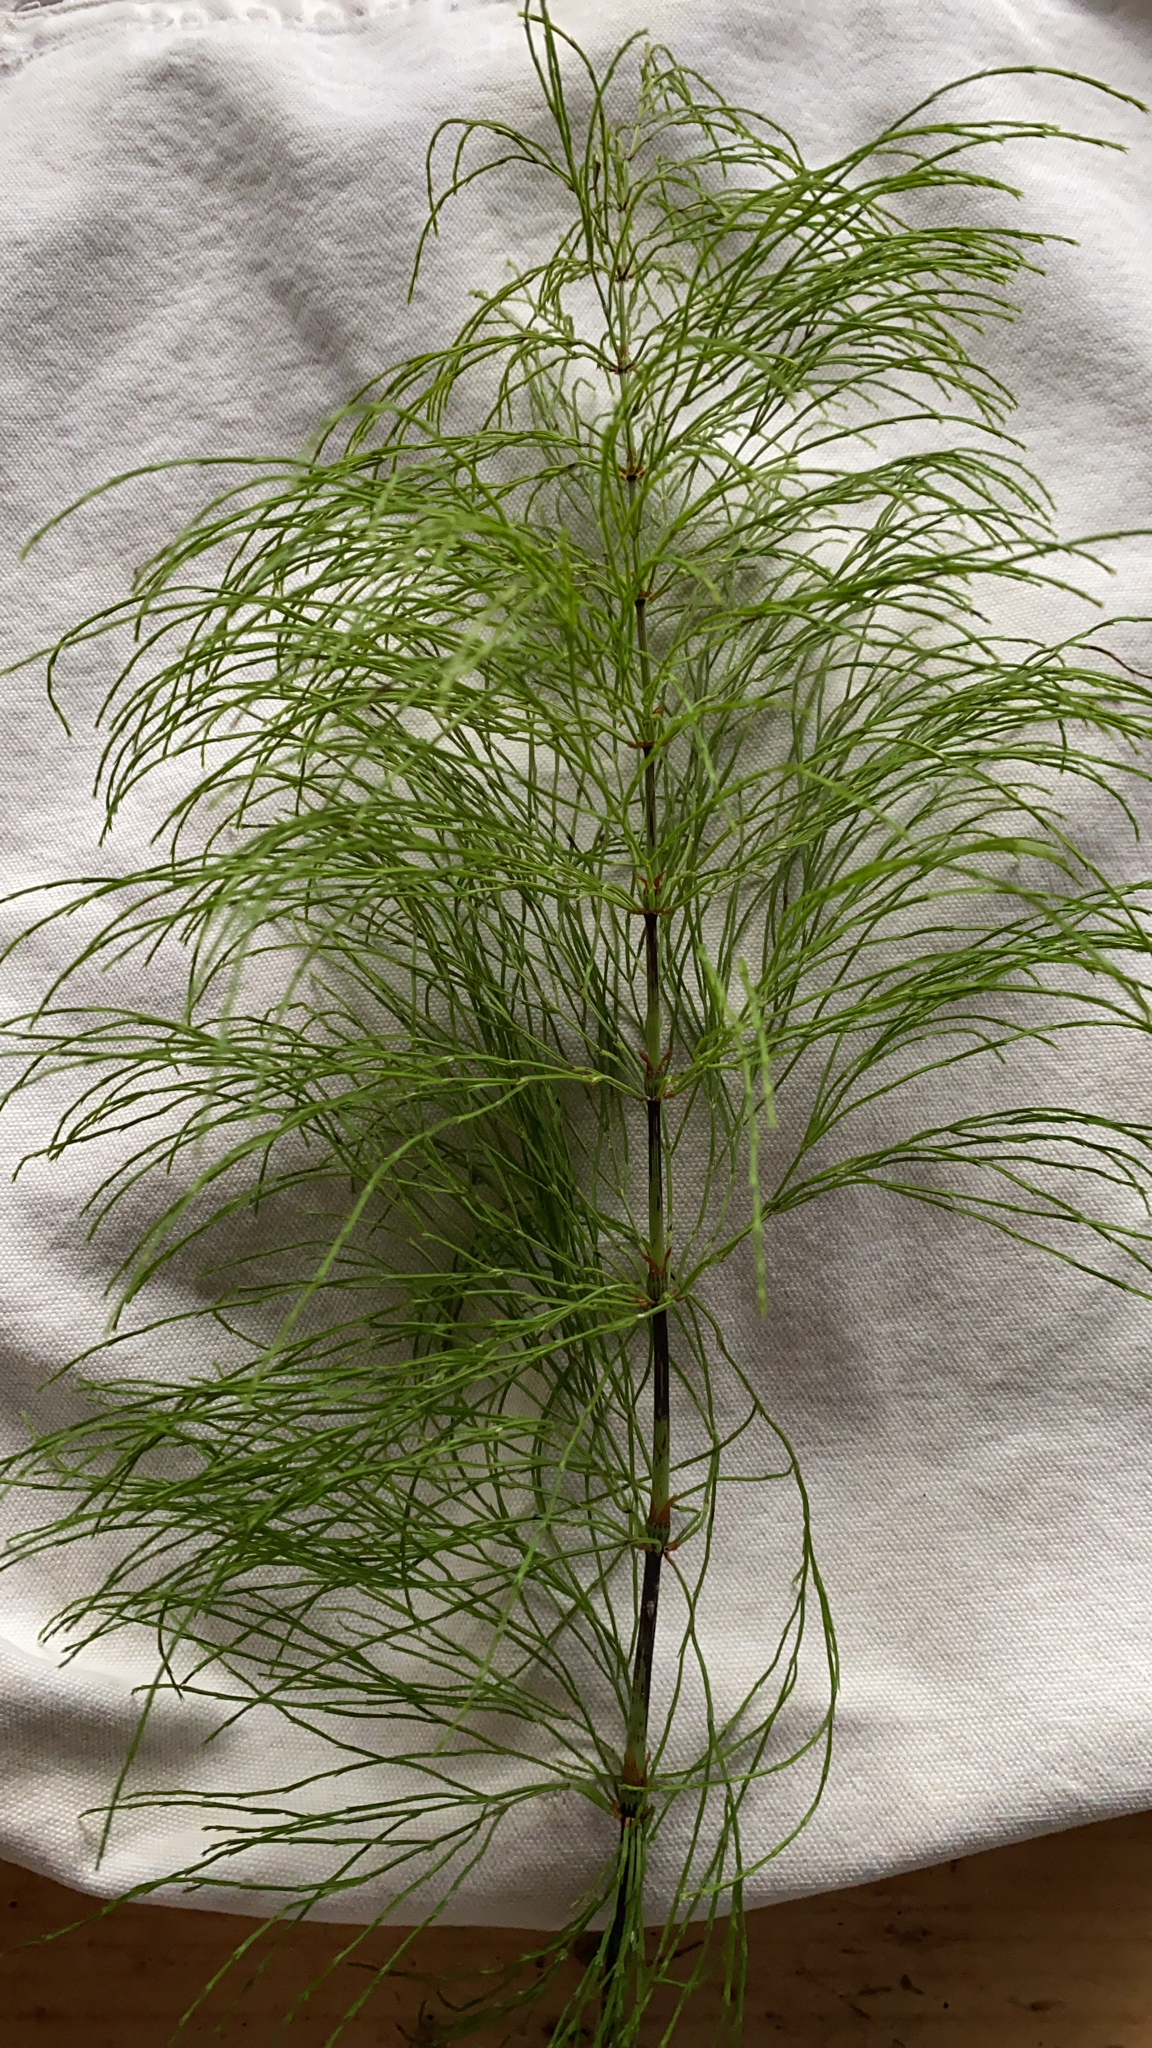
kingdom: Plantae
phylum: Tracheophyta
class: Polypodiopsida
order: Equisetales
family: Equisetaceae
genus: Equisetum
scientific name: Equisetum sylvaticum
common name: Wood horsetail
